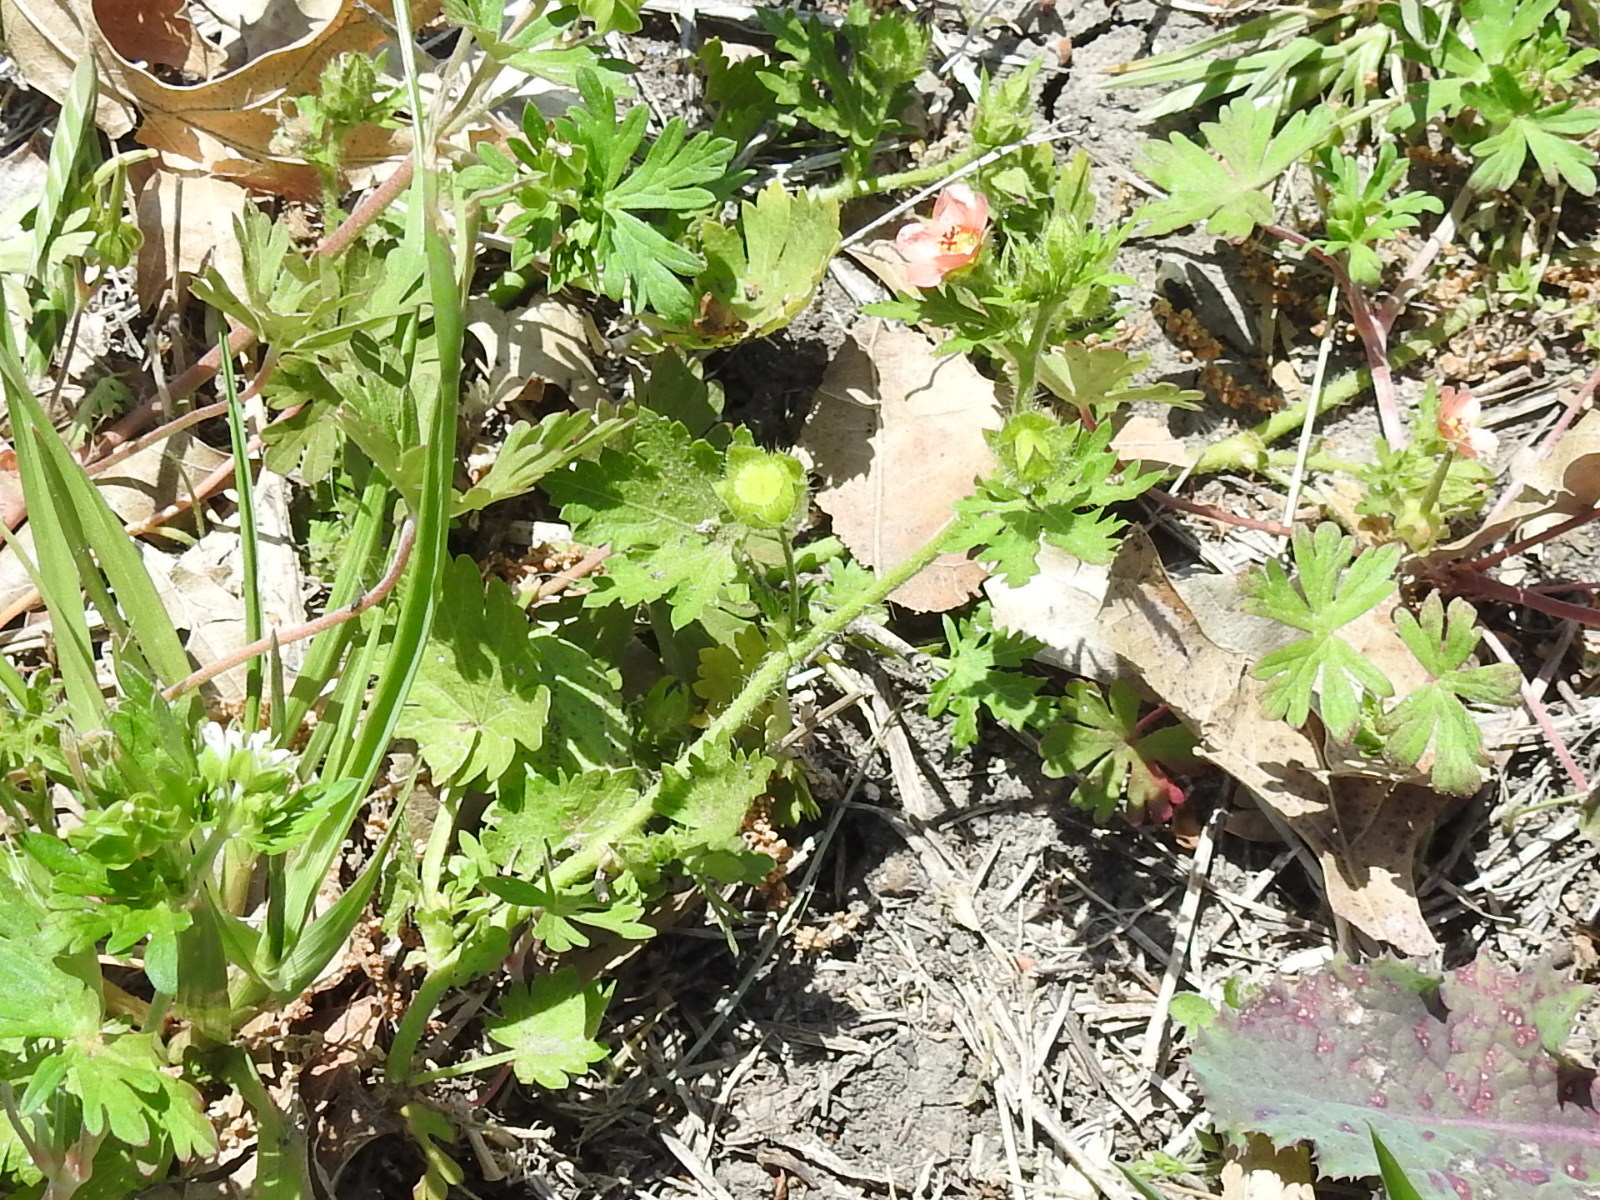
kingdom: Plantae
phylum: Tracheophyta
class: Magnoliopsida
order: Malvales
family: Malvaceae
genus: Modiola
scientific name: Modiola caroliniana
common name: Carolina bristlemallow
